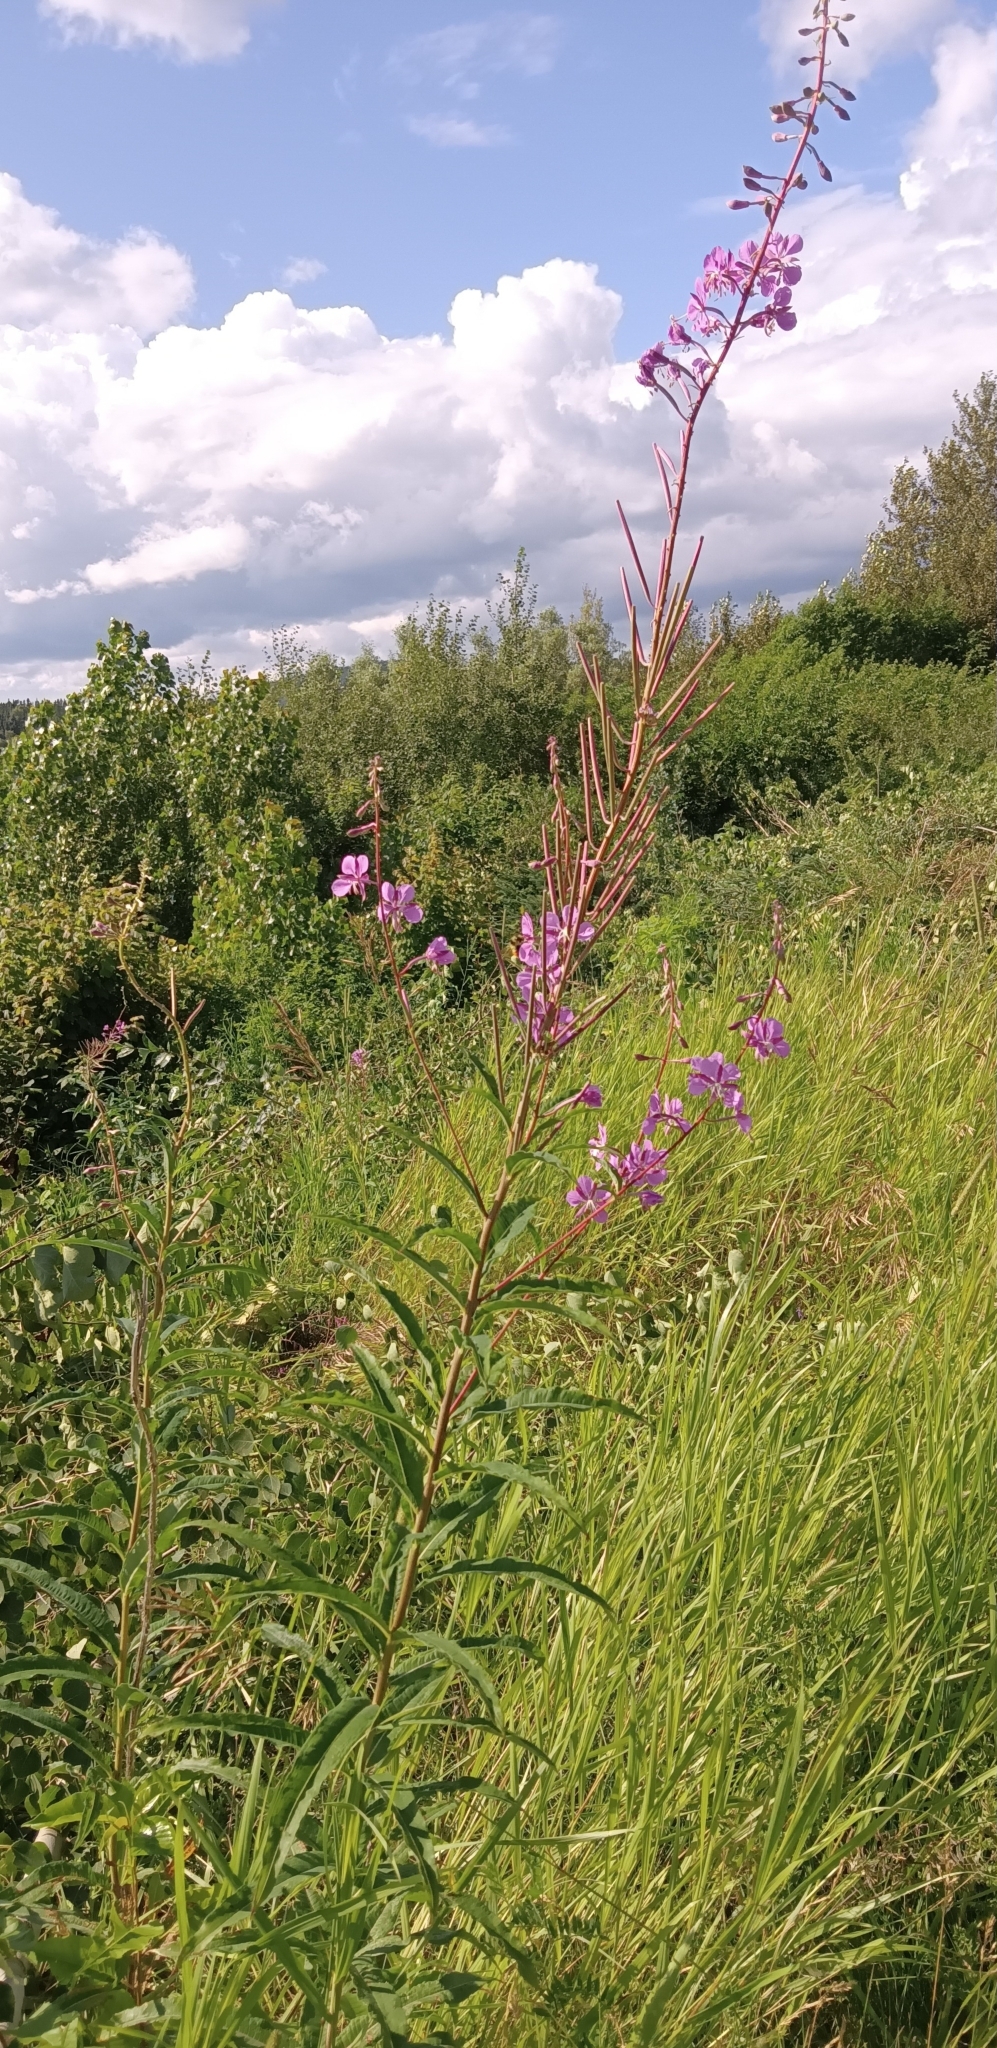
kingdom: Plantae
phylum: Tracheophyta
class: Magnoliopsida
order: Myrtales
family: Onagraceae
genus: Chamaenerion
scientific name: Chamaenerion angustifolium
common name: Fireweed
